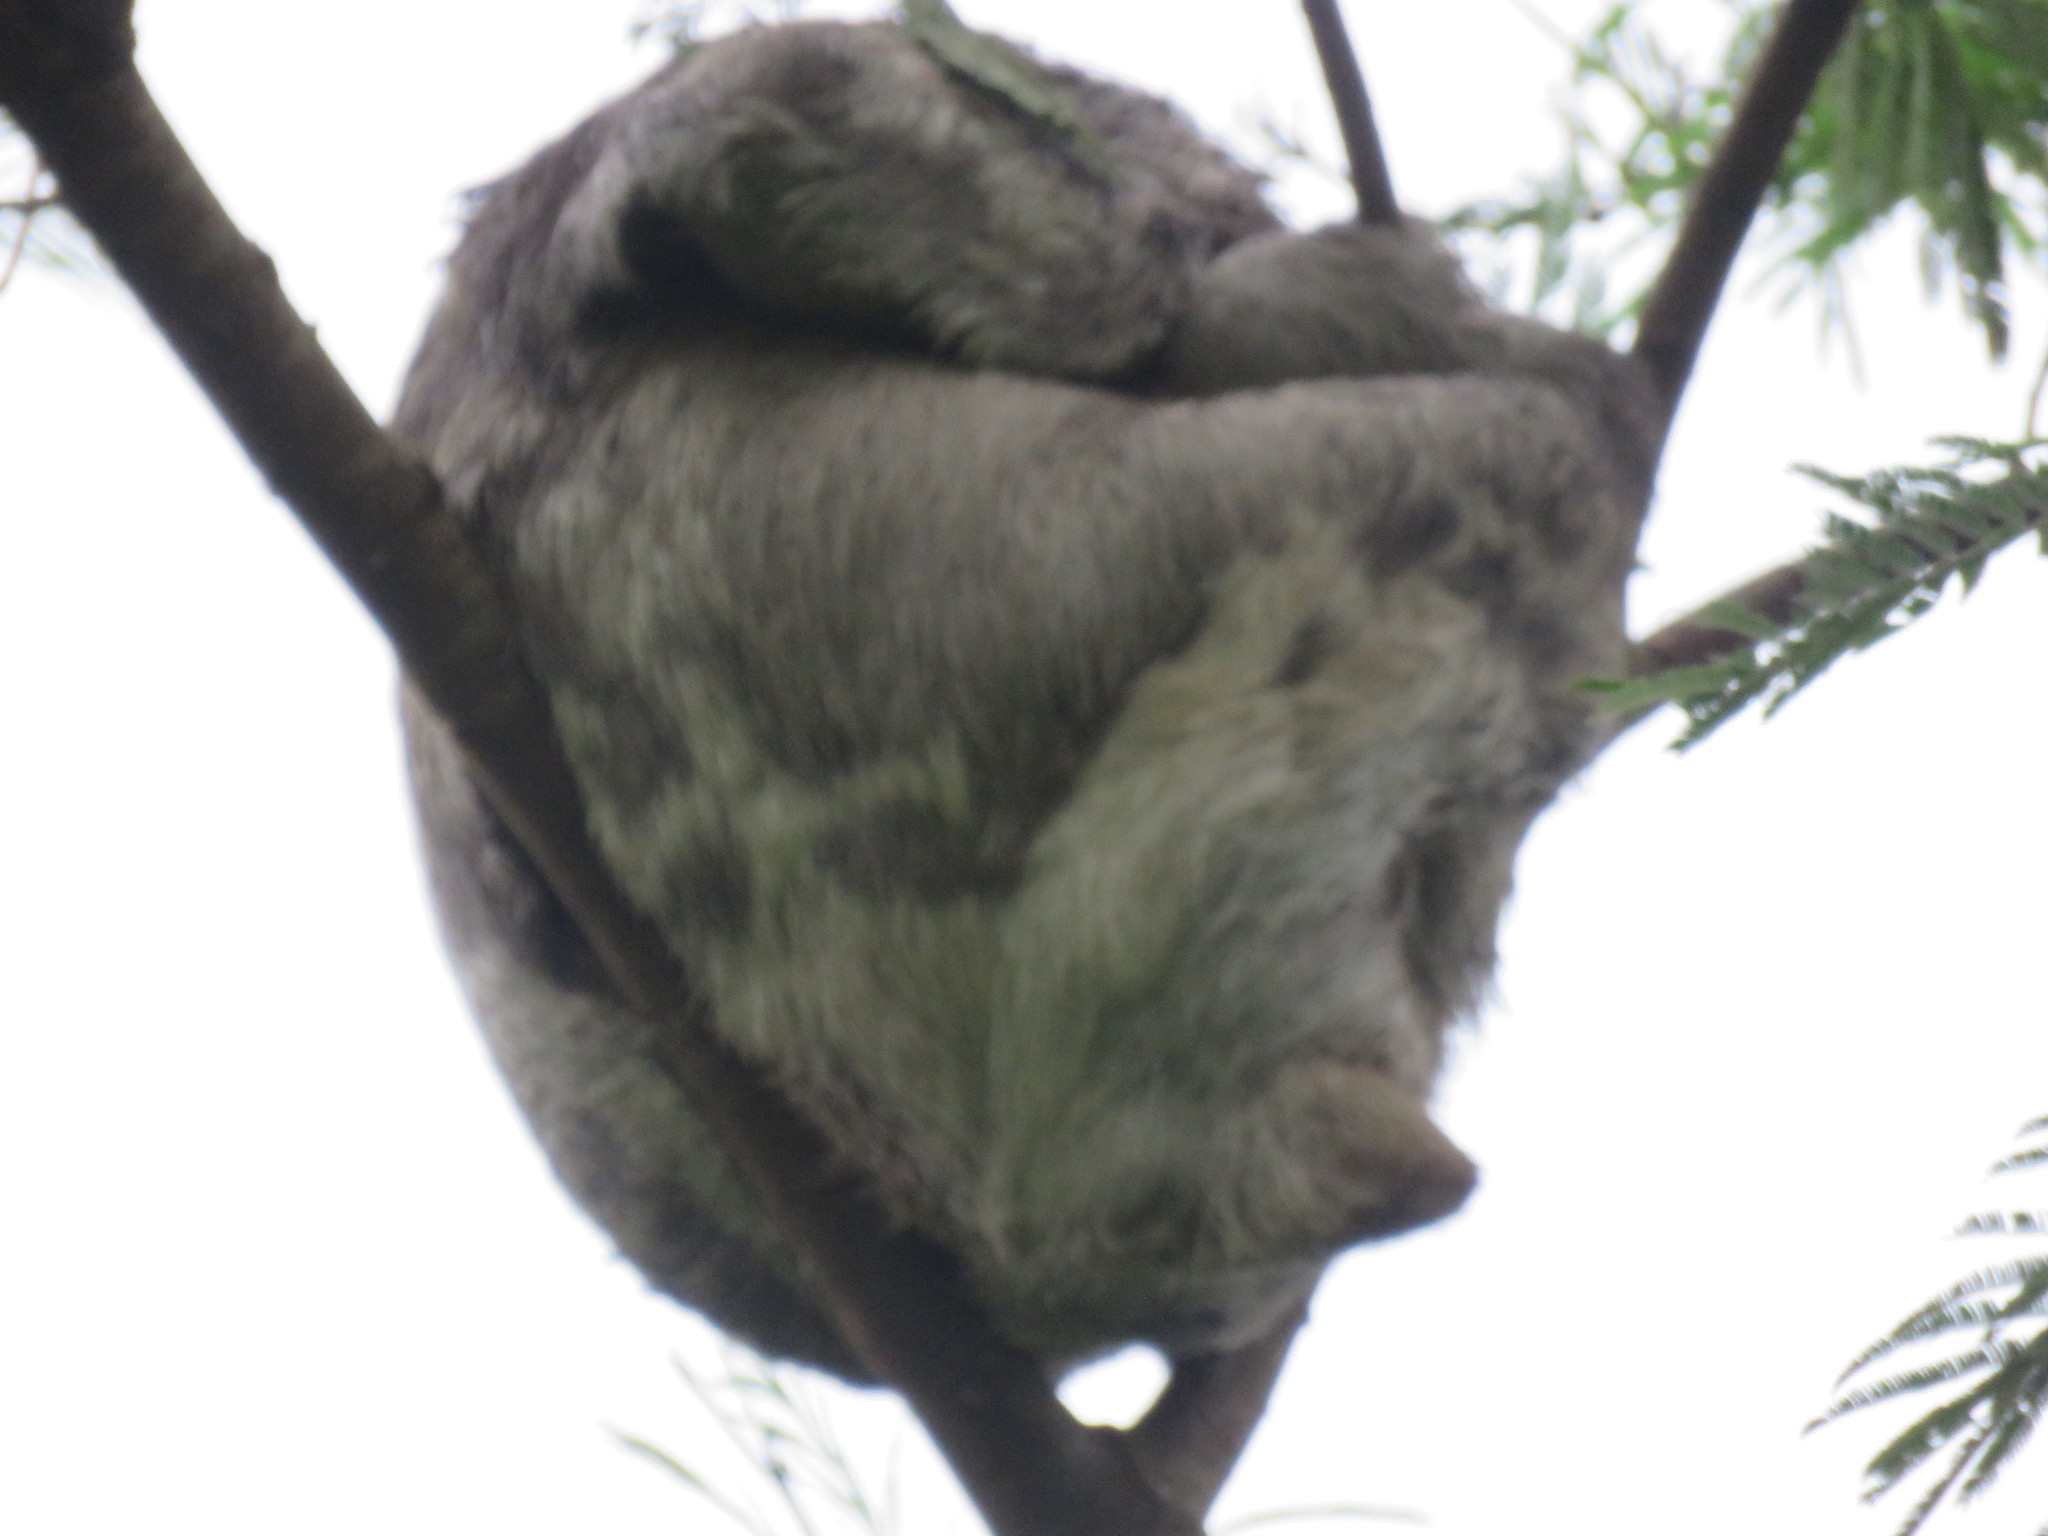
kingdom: Animalia
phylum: Chordata
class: Mammalia
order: Pilosa
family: Bradypodidae
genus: Bradypus
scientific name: Bradypus variegatus
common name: Brown-throated three-toed sloth
